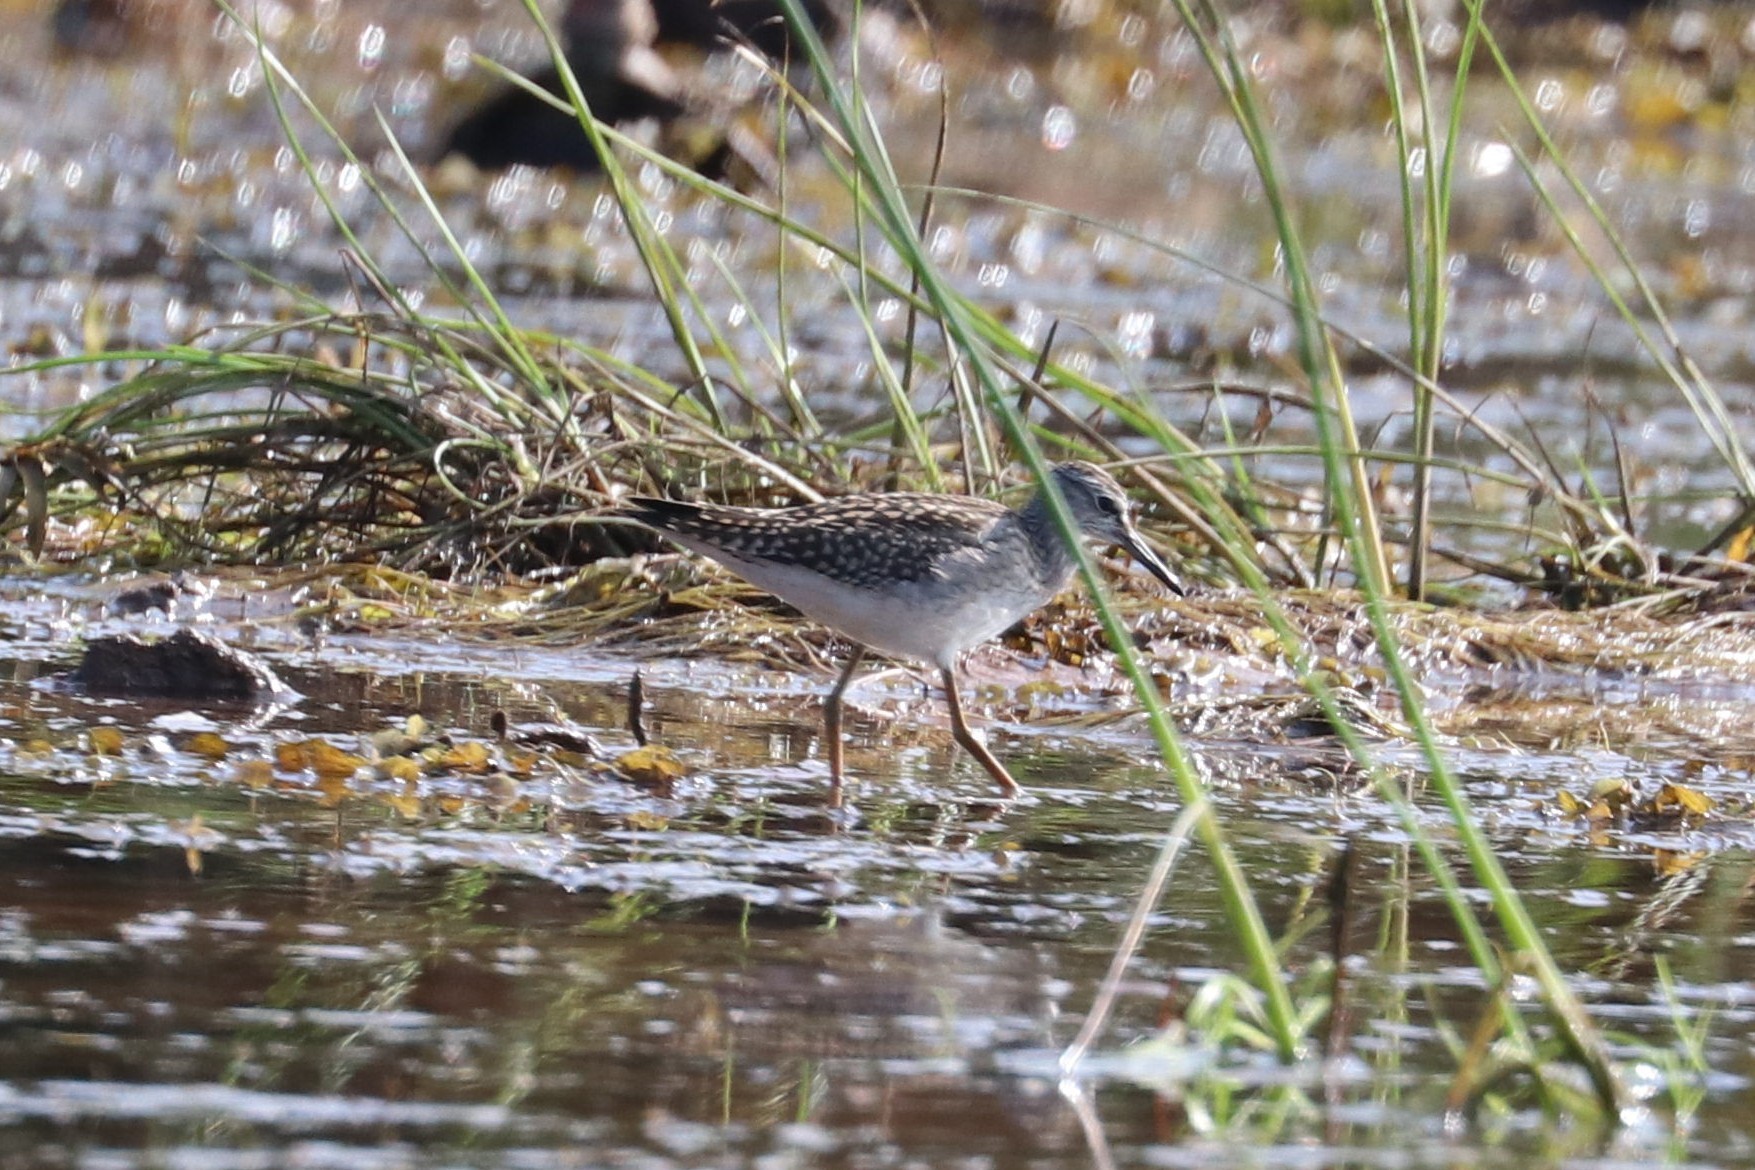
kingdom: Animalia
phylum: Chordata
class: Aves
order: Charadriiformes
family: Scolopacidae
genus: Tringa
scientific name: Tringa glareola
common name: Wood sandpiper
